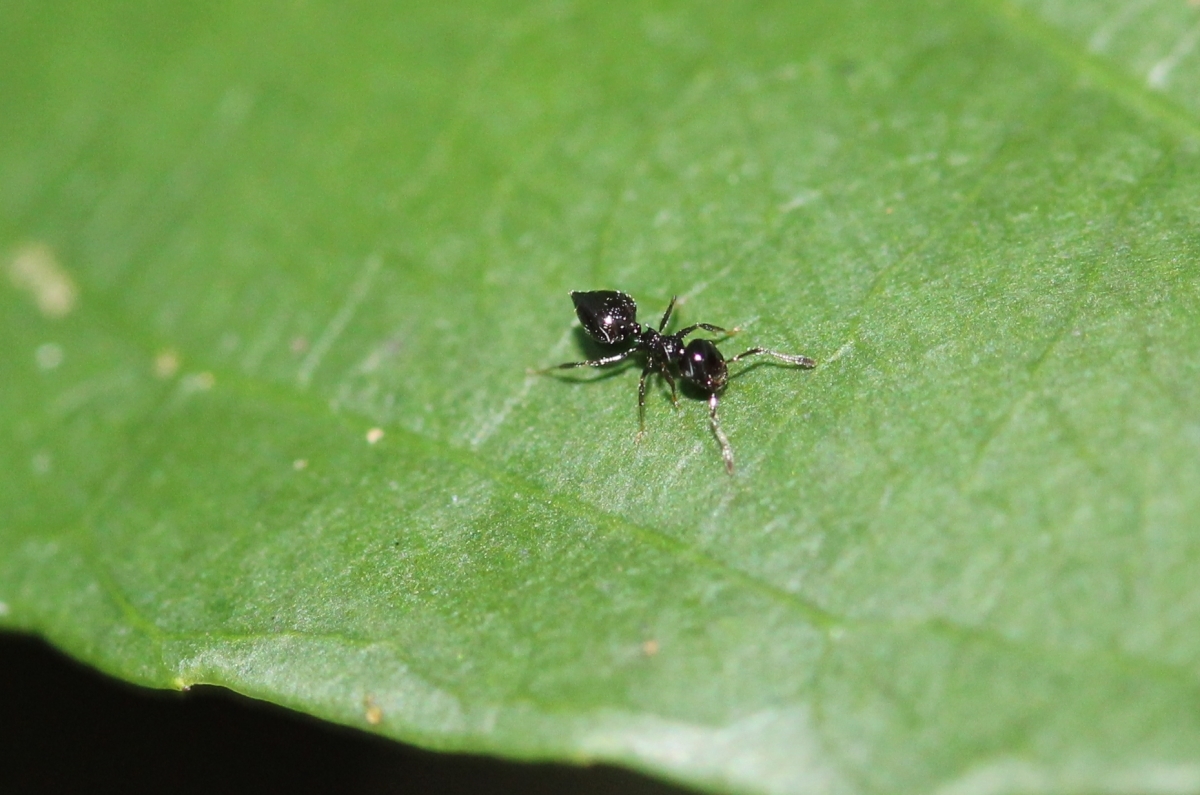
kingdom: Animalia
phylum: Arthropoda
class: Insecta
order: Hymenoptera
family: Formicidae
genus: Orthocrema
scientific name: Orthocrema
